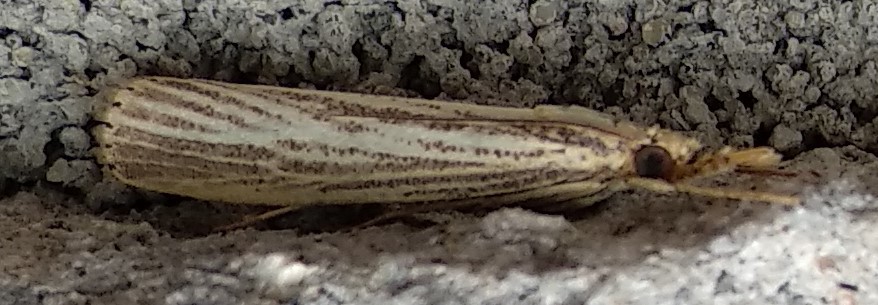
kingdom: Animalia
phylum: Arthropoda
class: Insecta
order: Lepidoptera
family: Crambidae
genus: Agriphila
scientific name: Agriphila vulgivagellus
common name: Vagabond crambus moth
